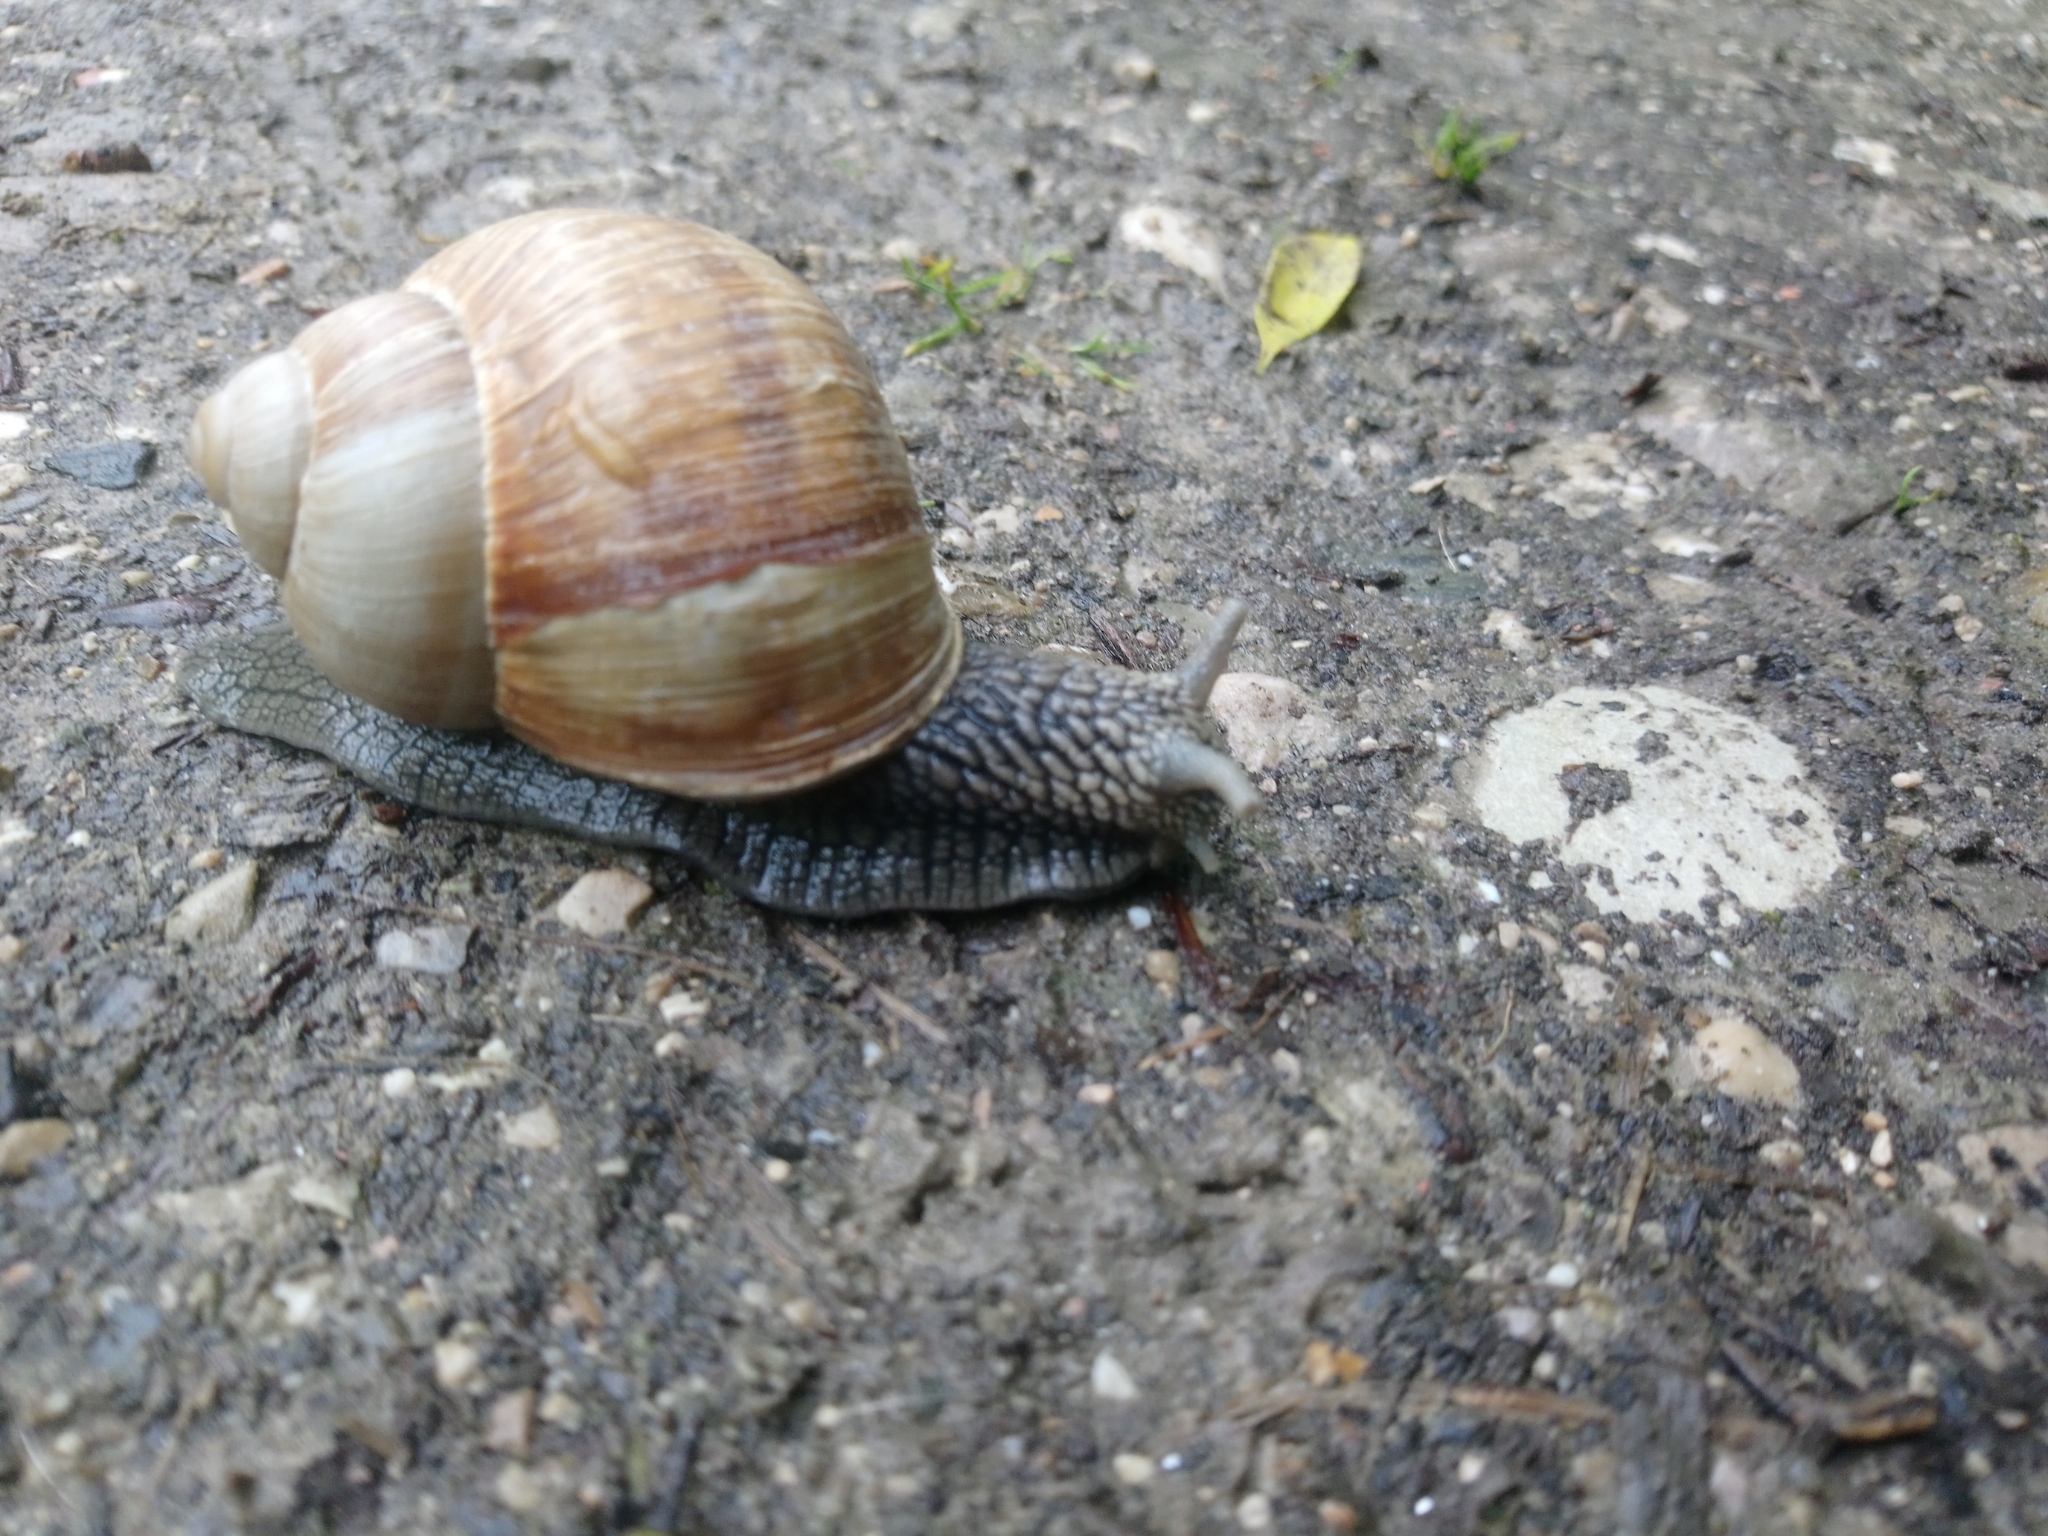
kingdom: Animalia
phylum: Mollusca
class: Gastropoda
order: Stylommatophora
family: Helicidae
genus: Helix
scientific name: Helix pomatia
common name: Roman snail
